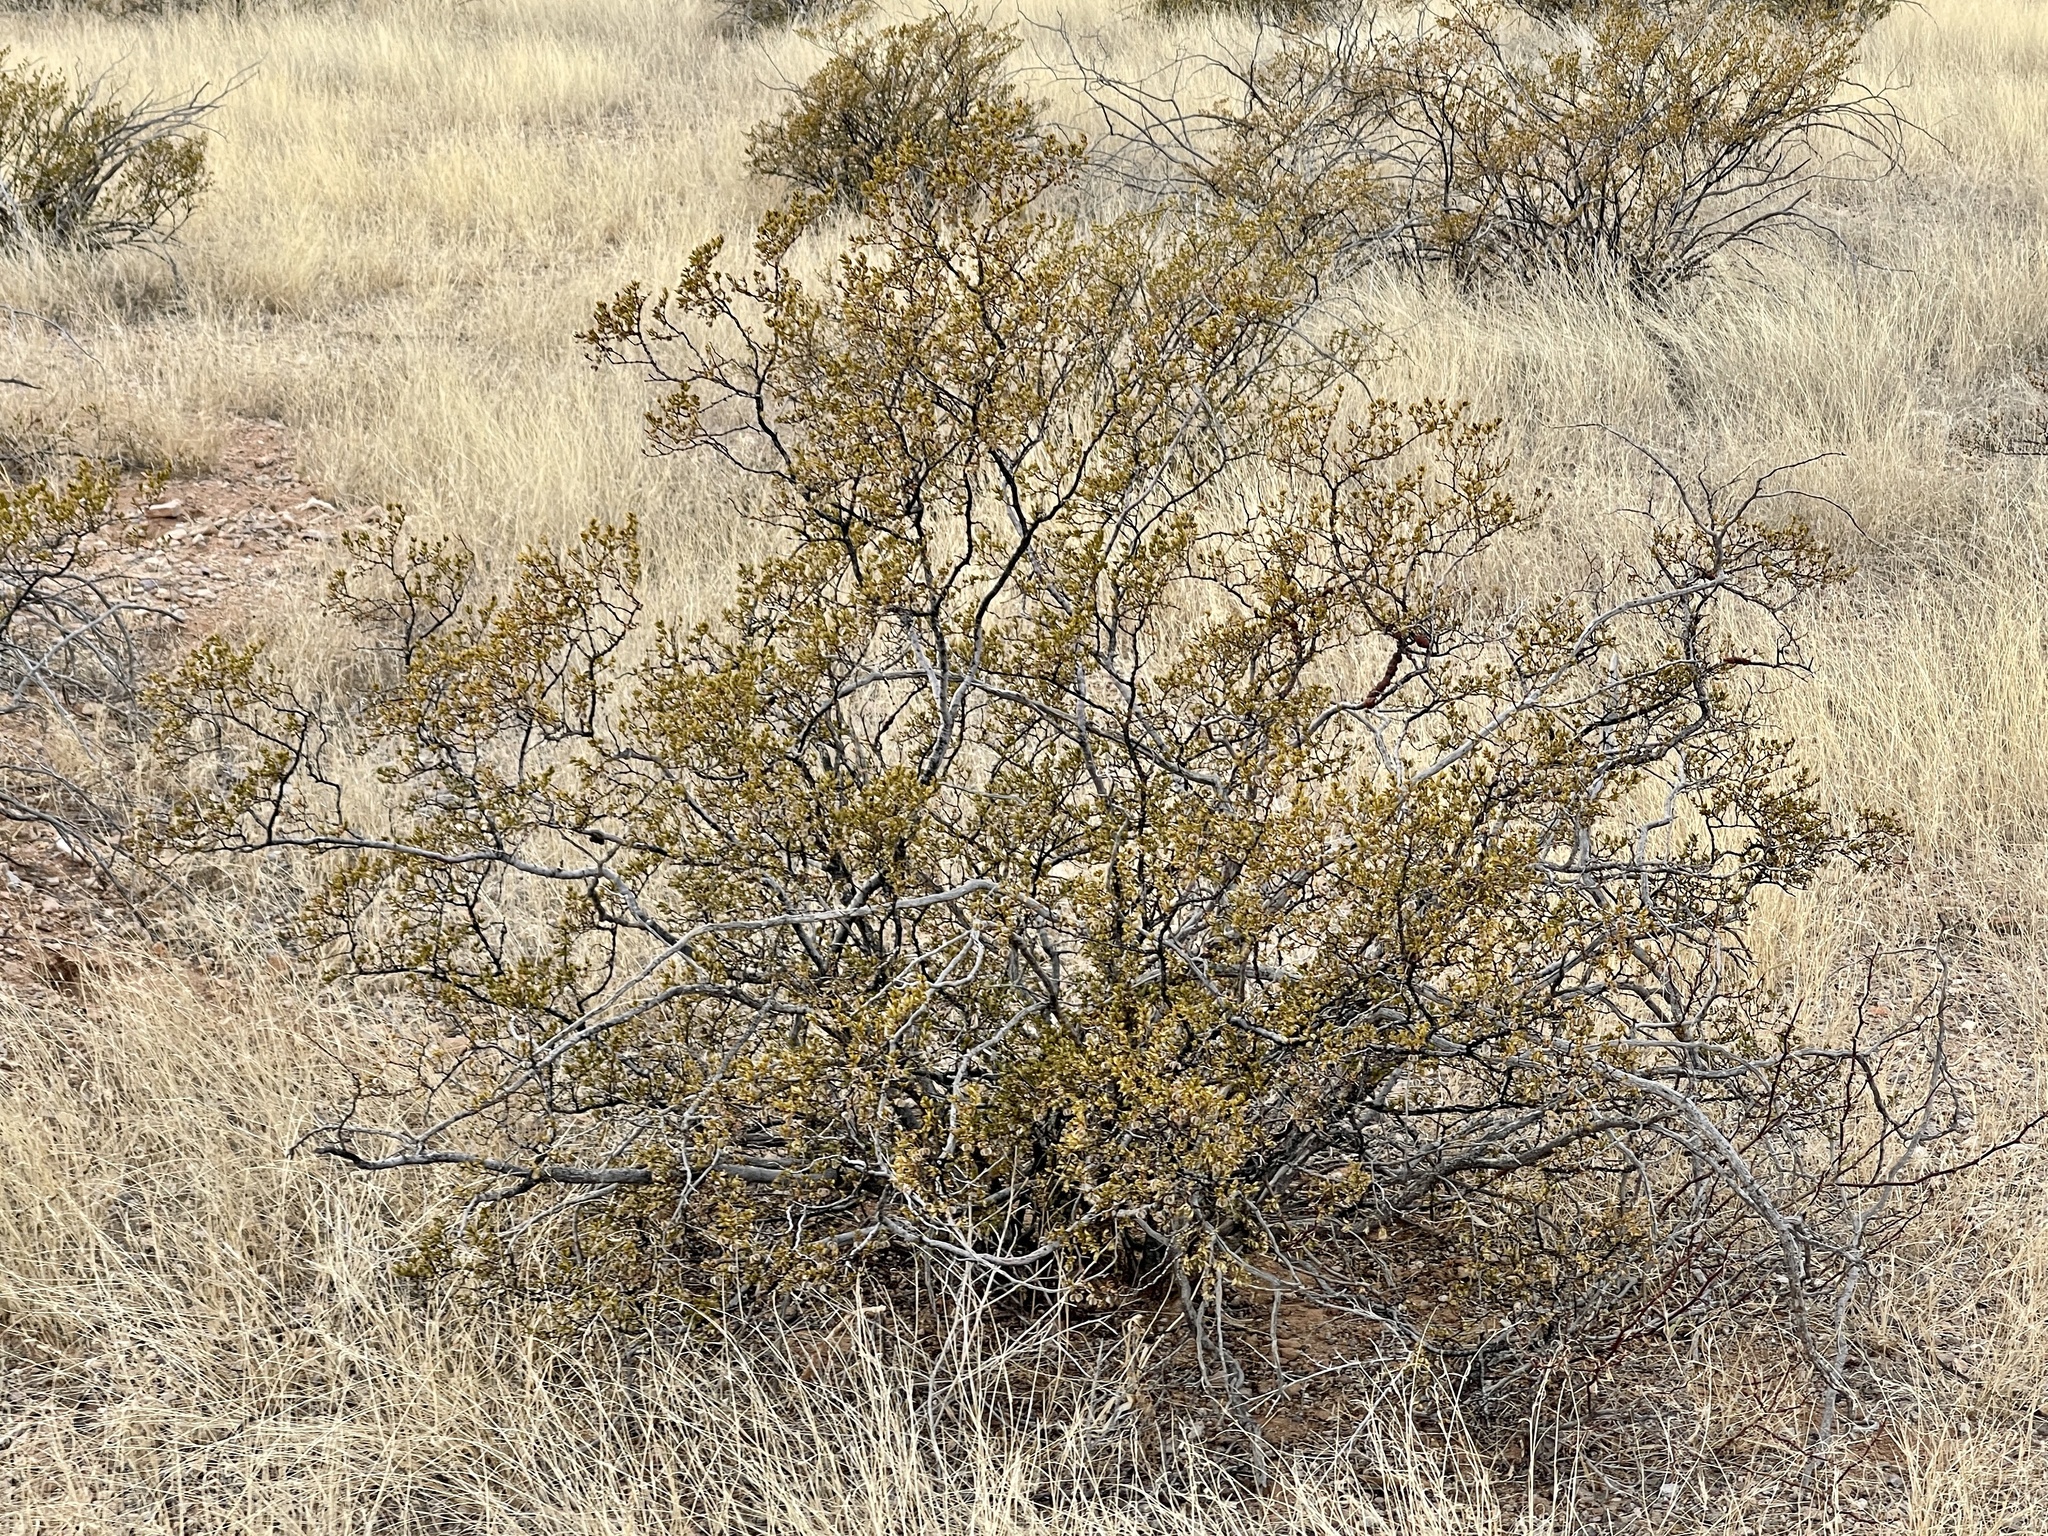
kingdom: Plantae
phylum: Tracheophyta
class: Magnoliopsida
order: Zygophyllales
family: Zygophyllaceae
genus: Larrea
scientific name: Larrea tridentata
